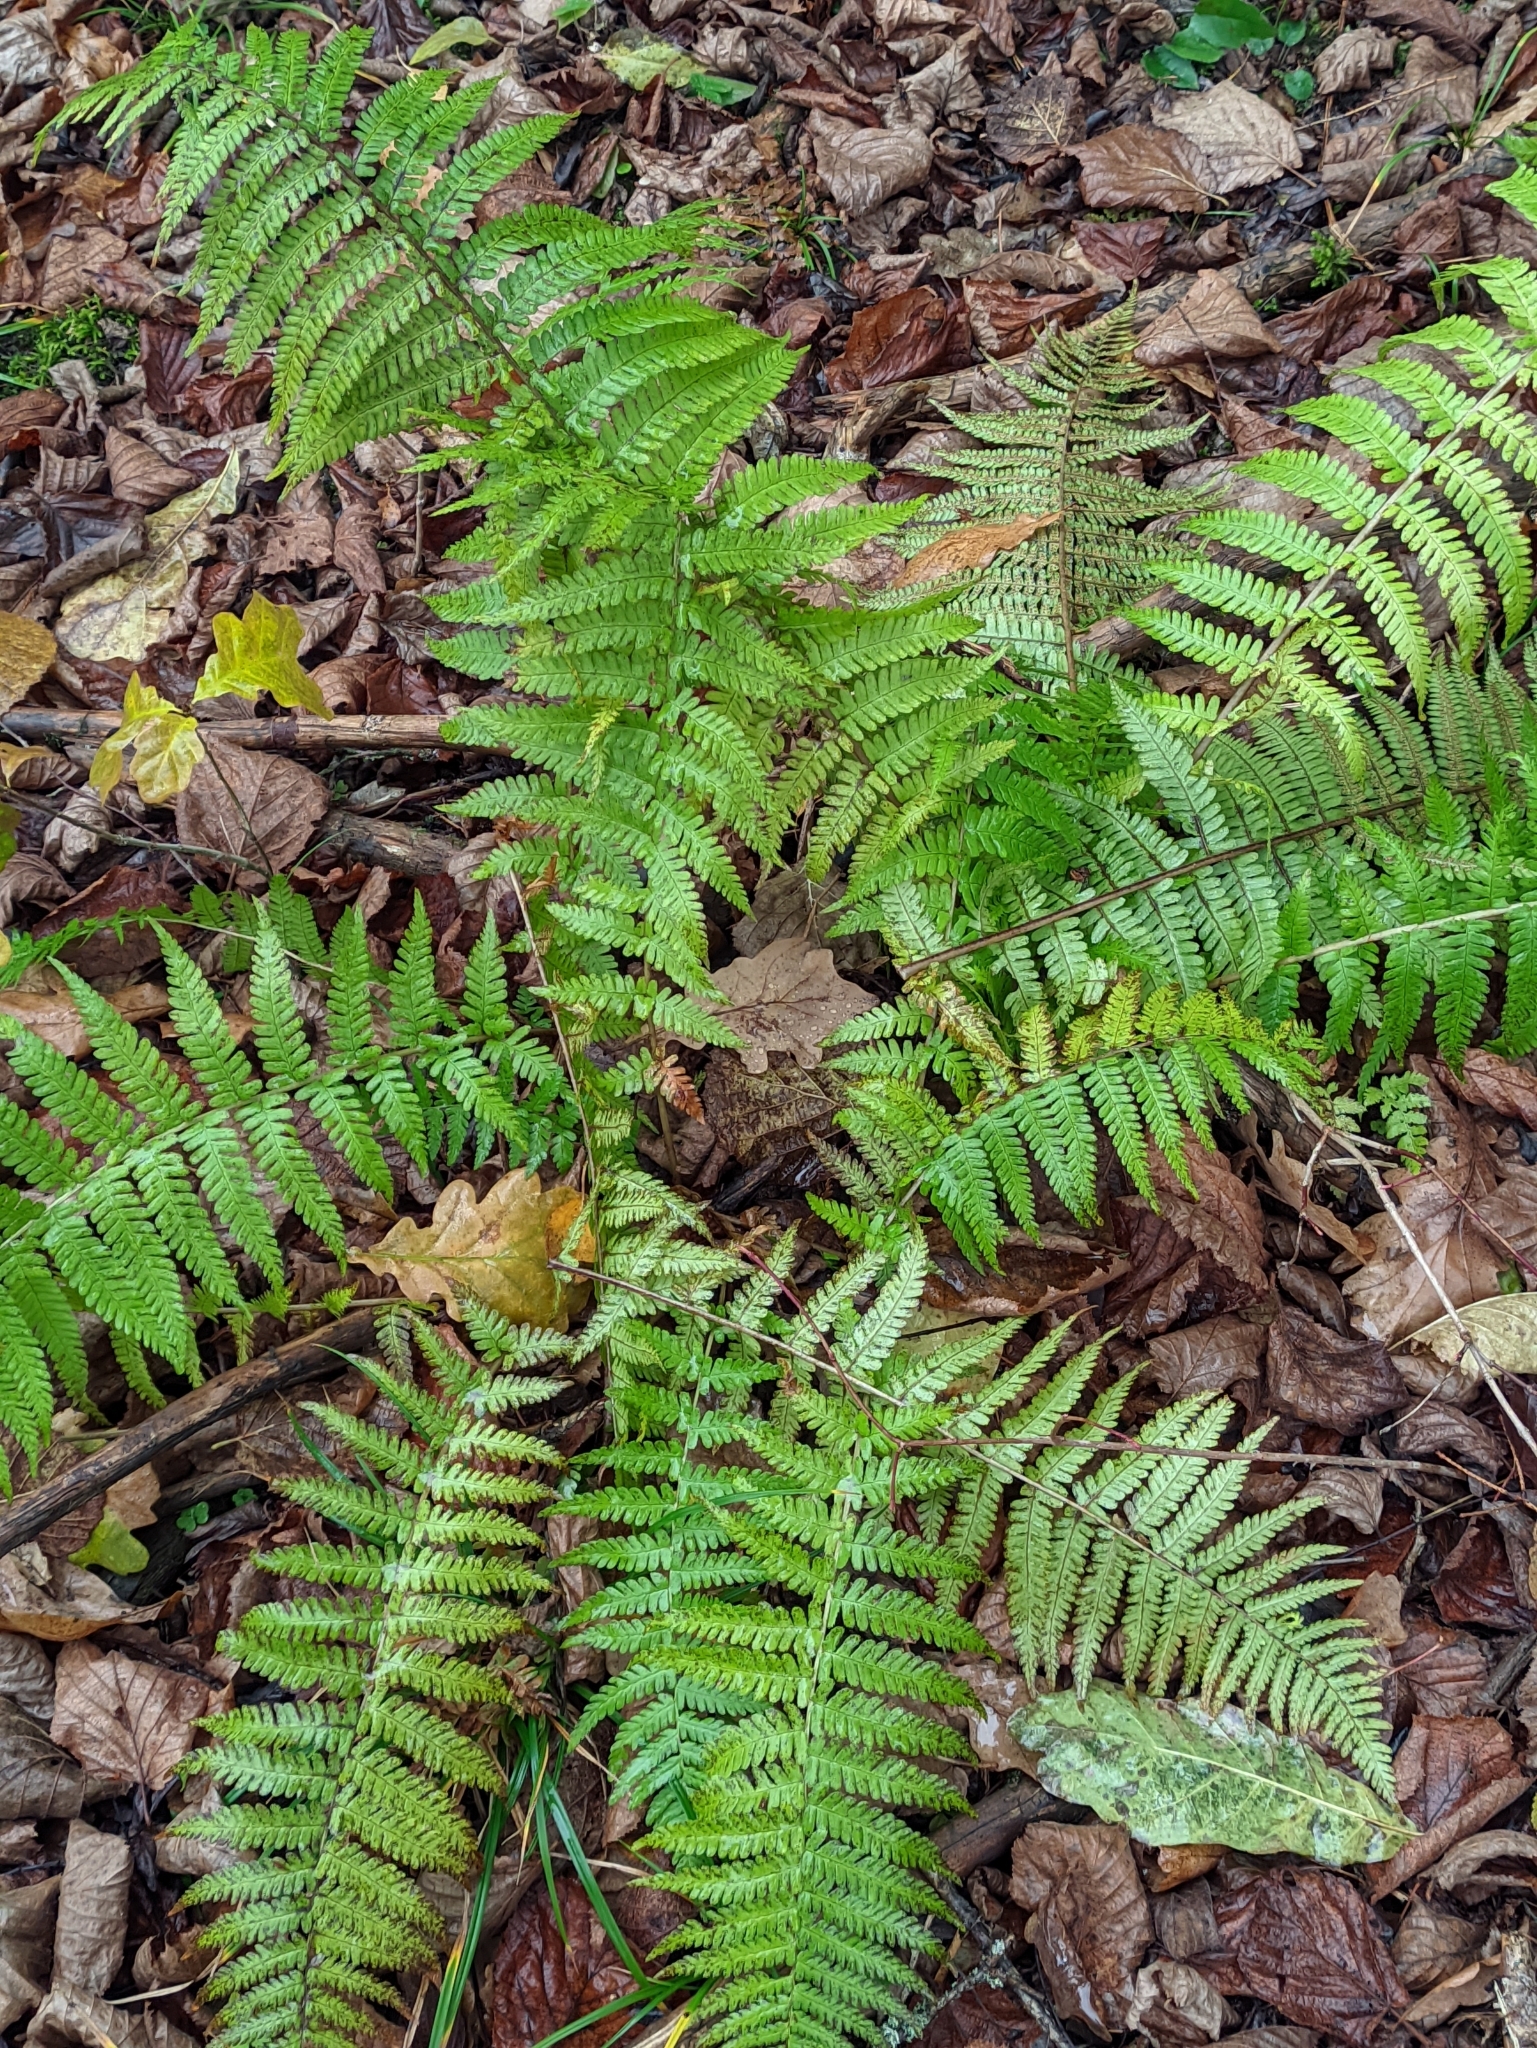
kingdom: Plantae
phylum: Tracheophyta
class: Polypodiopsida
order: Polypodiales
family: Dryopteridaceae
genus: Dryopteris
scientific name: Dryopteris filix-mas
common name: Male fern
